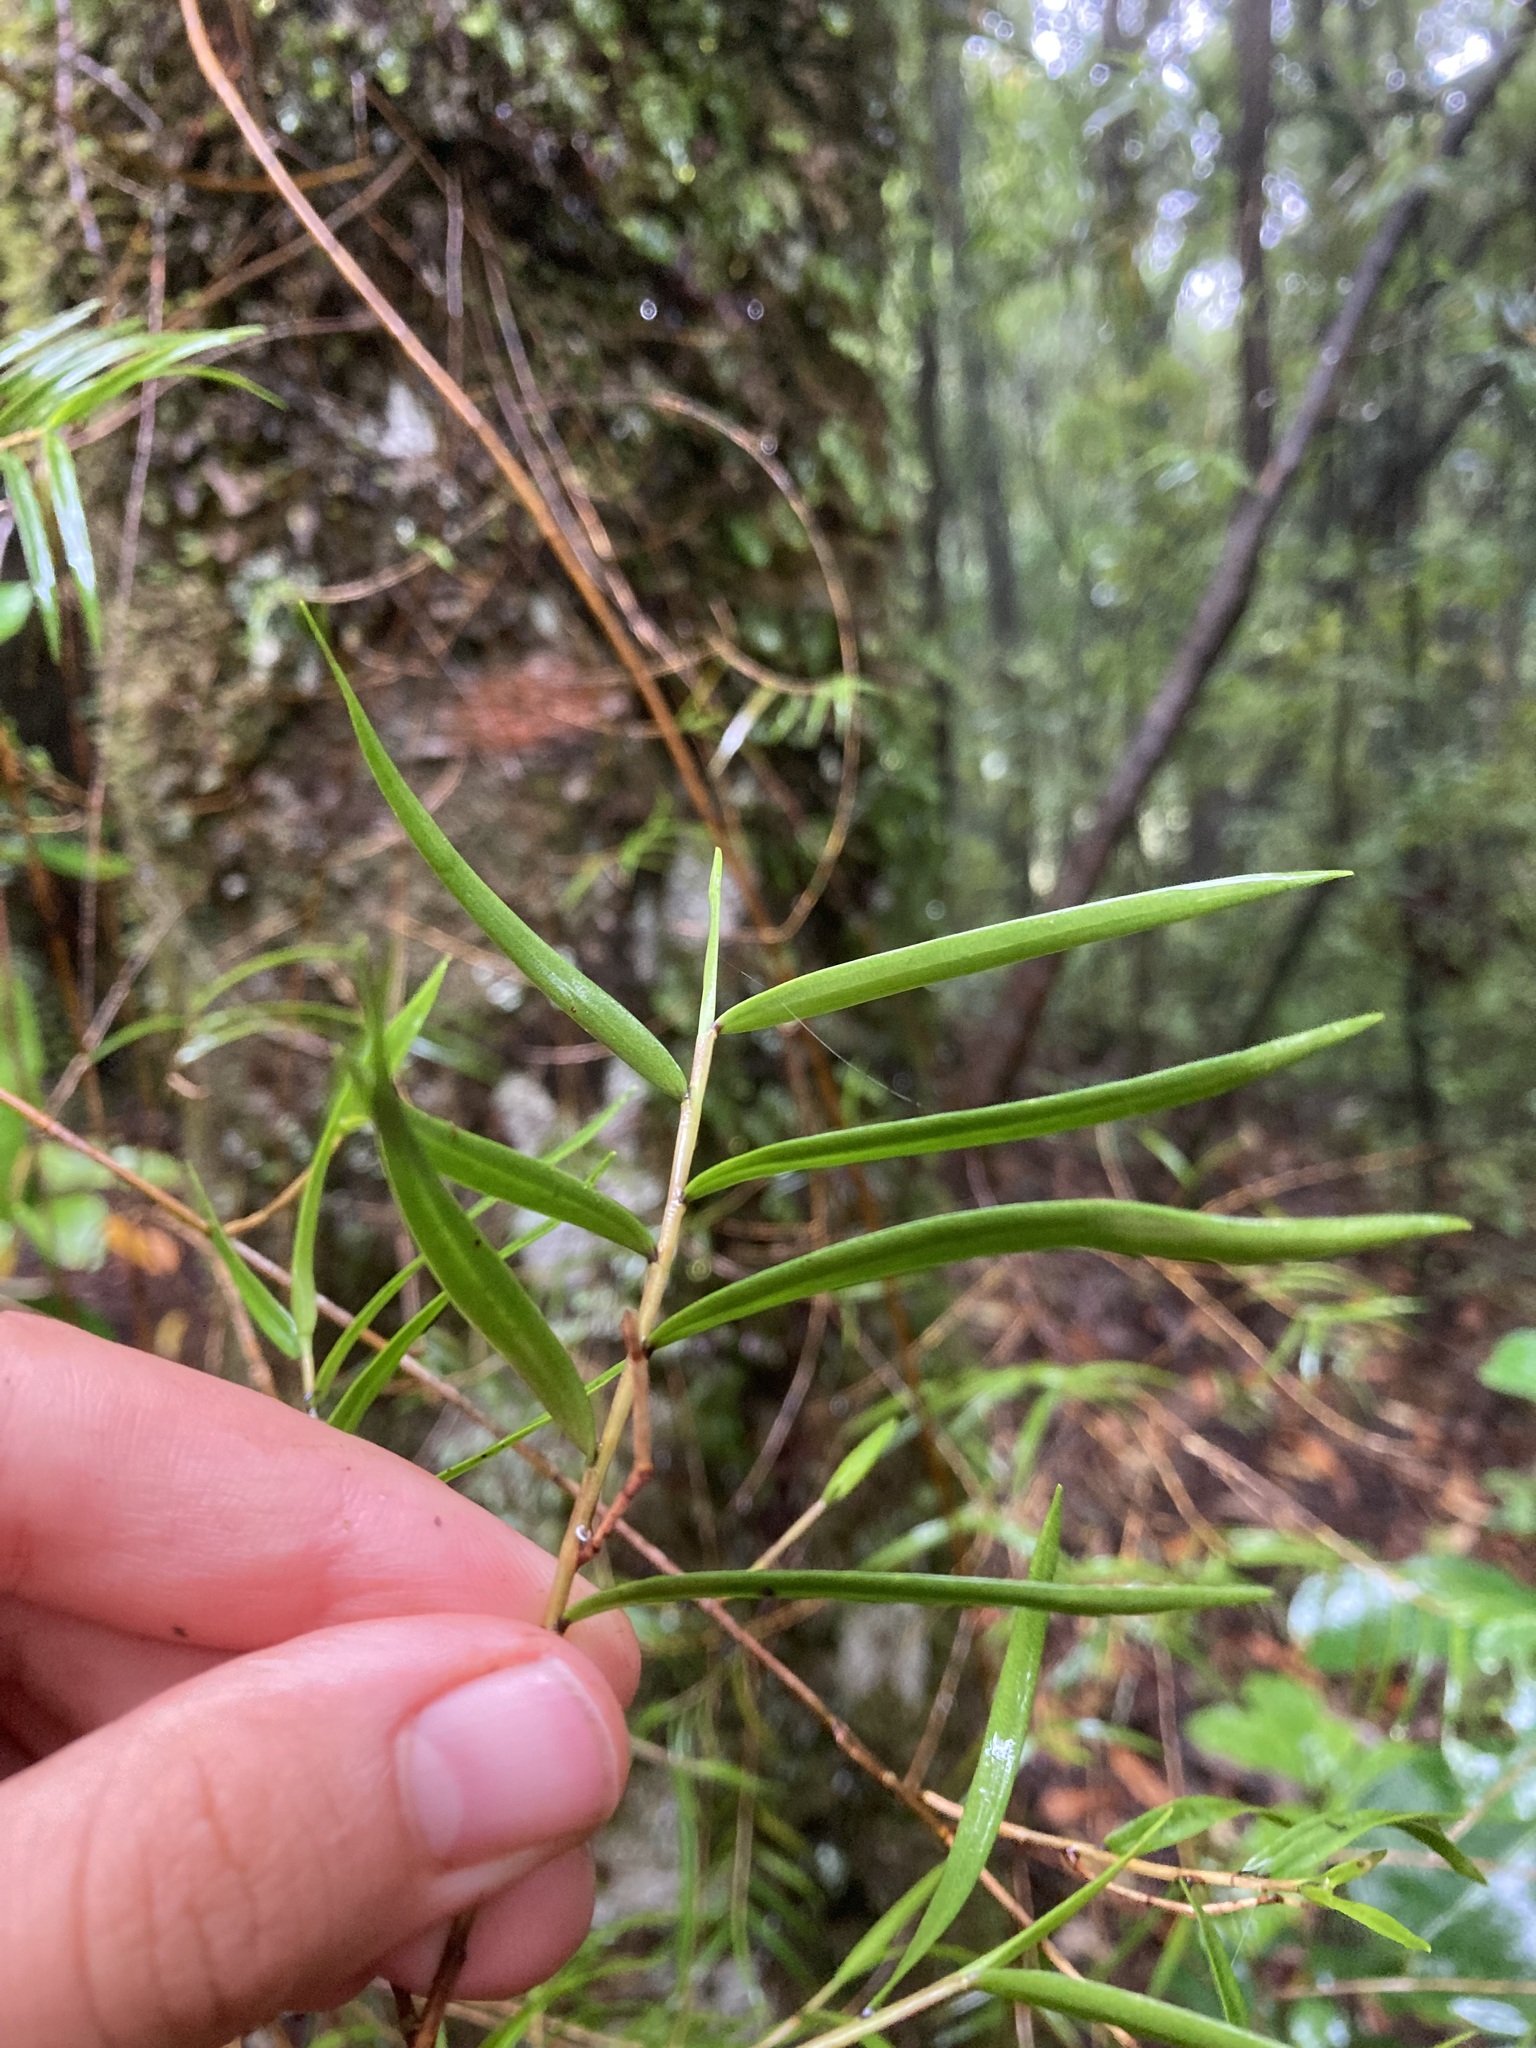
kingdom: Plantae
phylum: Tracheophyta
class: Liliopsida
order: Asparagales
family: Orchidaceae
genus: Dendrobium
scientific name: Dendrobium cunninghamii
